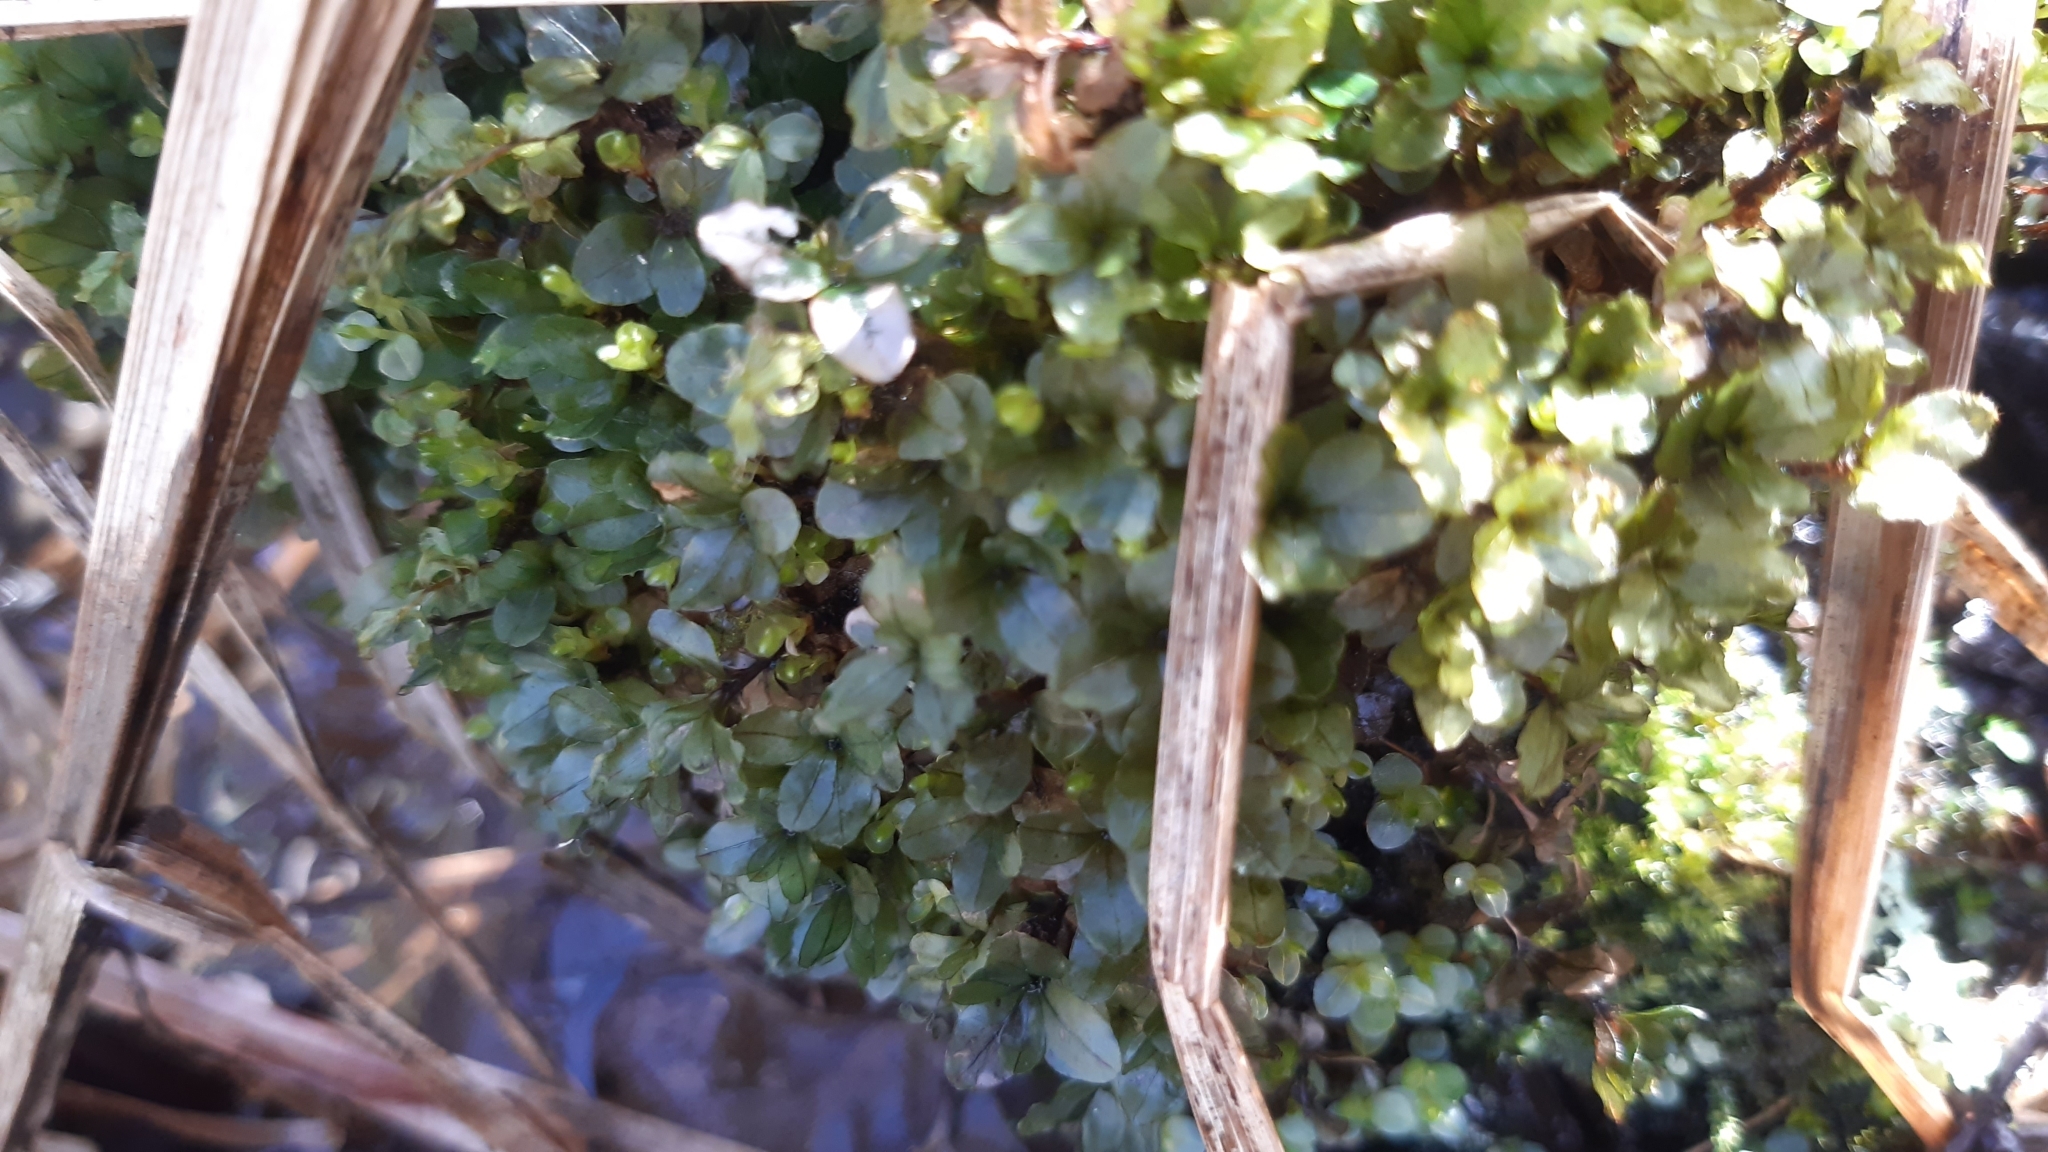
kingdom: Plantae
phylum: Bryophyta
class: Bryopsida
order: Bryales
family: Mniaceae
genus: Rhizomnium
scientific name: Rhizomnium punctatum
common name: Dotted leafy moss
